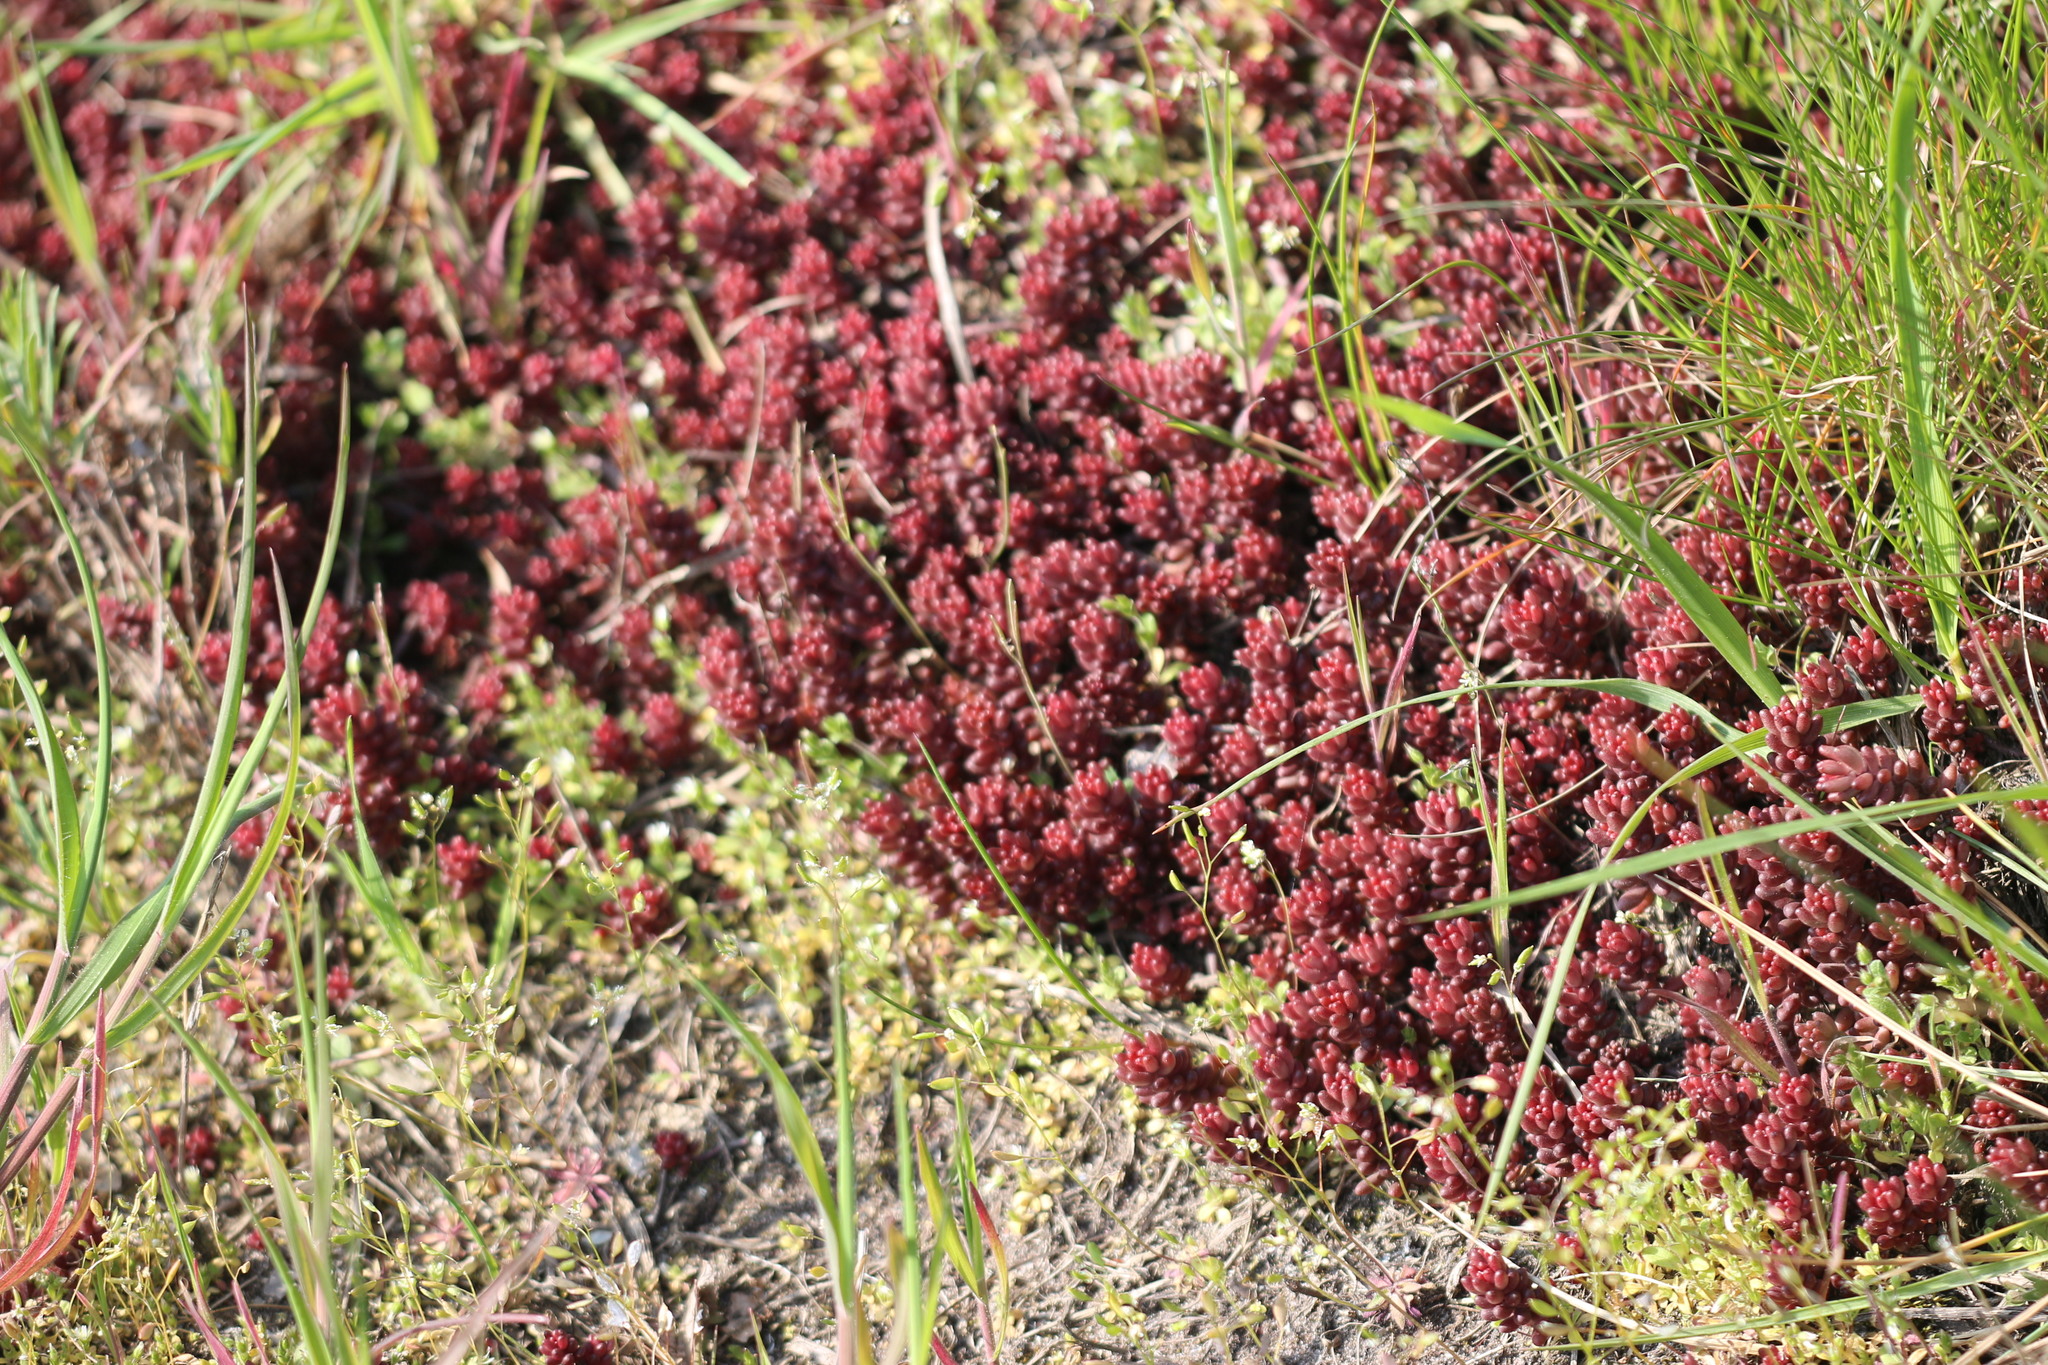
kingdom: Plantae
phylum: Tracheophyta
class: Magnoliopsida
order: Saxifragales
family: Crassulaceae
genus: Sedum
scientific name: Sedum album
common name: White stonecrop
